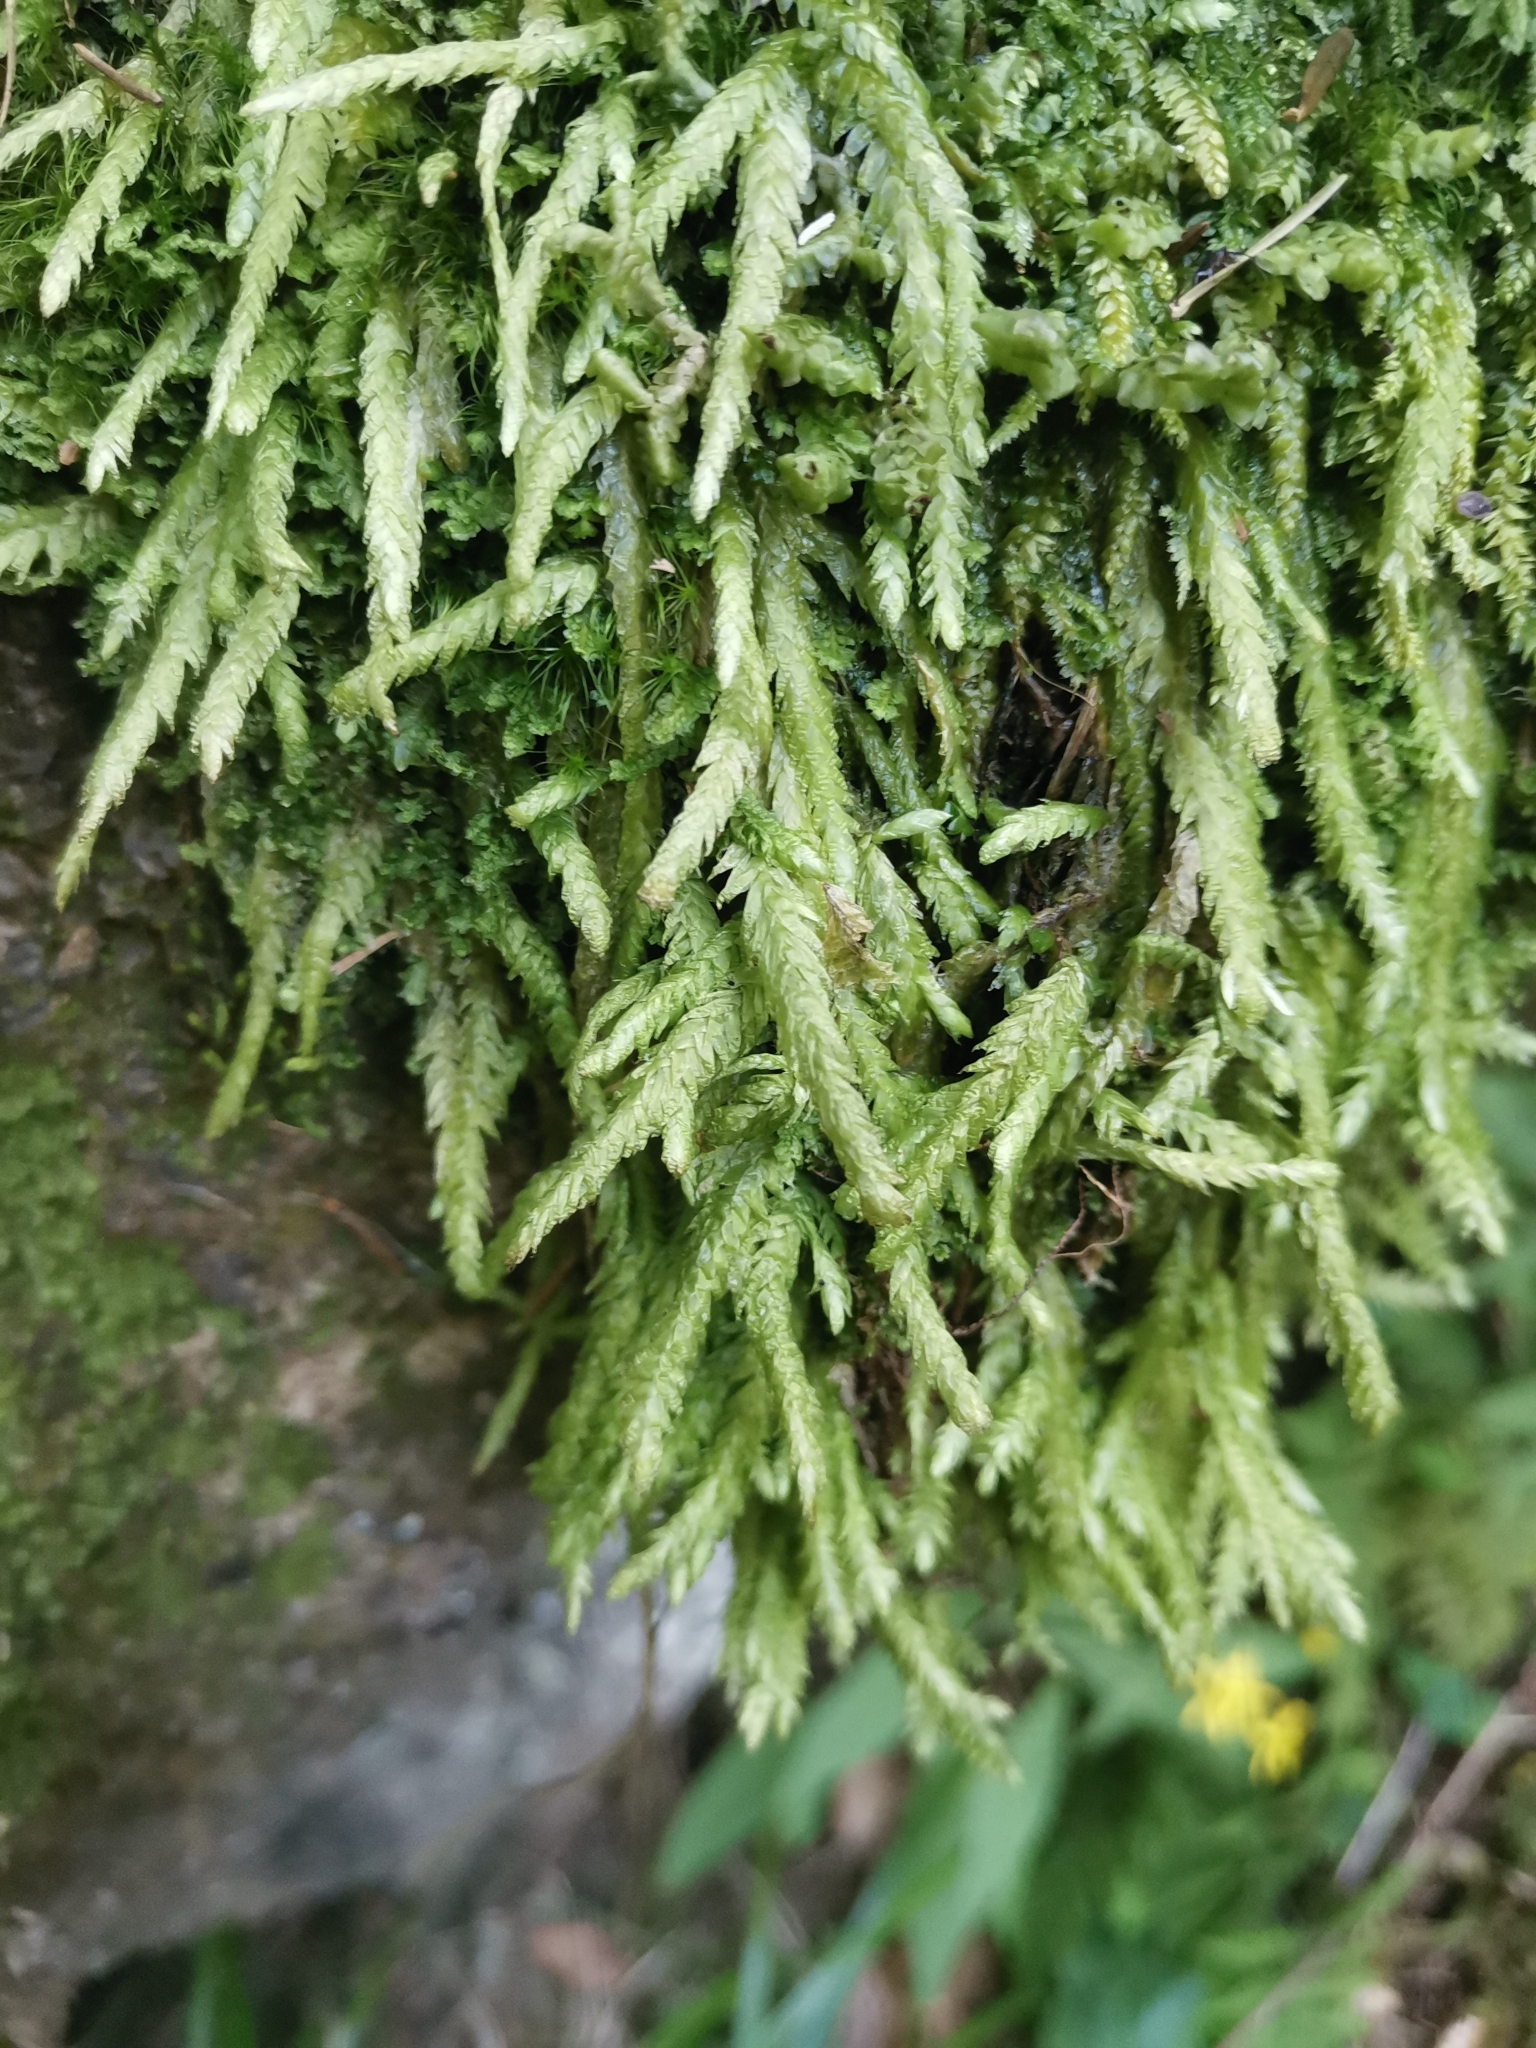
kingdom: Plantae
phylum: Bryophyta
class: Bryopsida
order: Hypnales
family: Plagiotheciaceae
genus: Plagiothecium
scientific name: Plagiothecium undulatum
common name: Waved silk-moss
